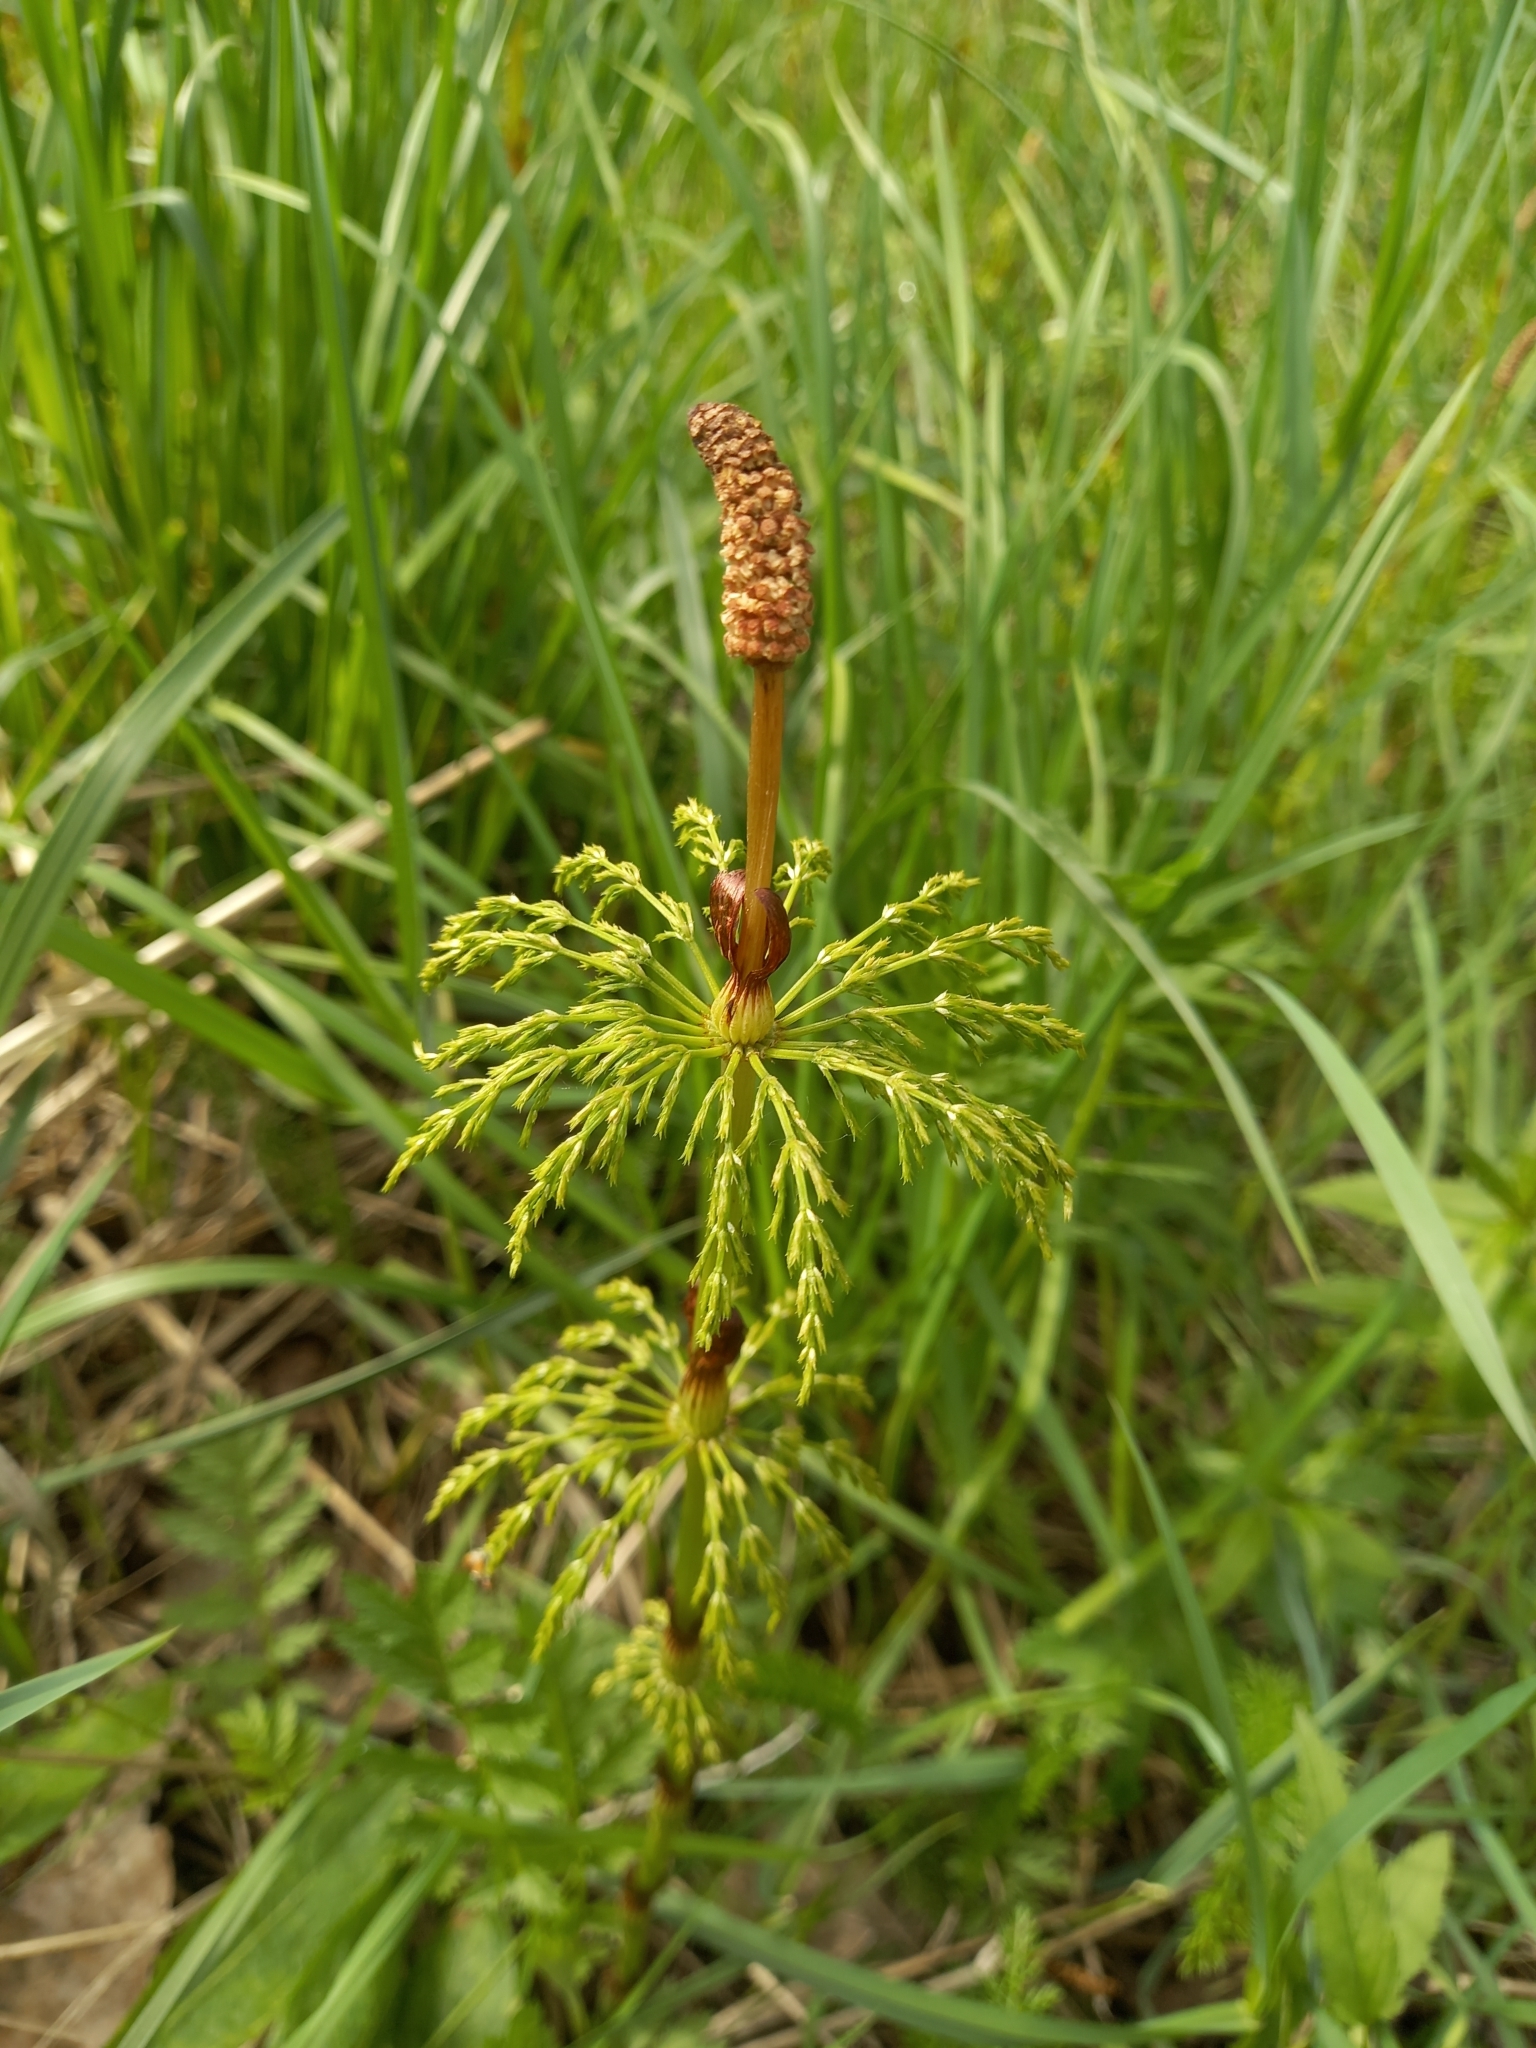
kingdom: Plantae
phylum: Tracheophyta
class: Polypodiopsida
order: Equisetales
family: Equisetaceae
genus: Equisetum
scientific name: Equisetum sylvaticum
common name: Wood horsetail
